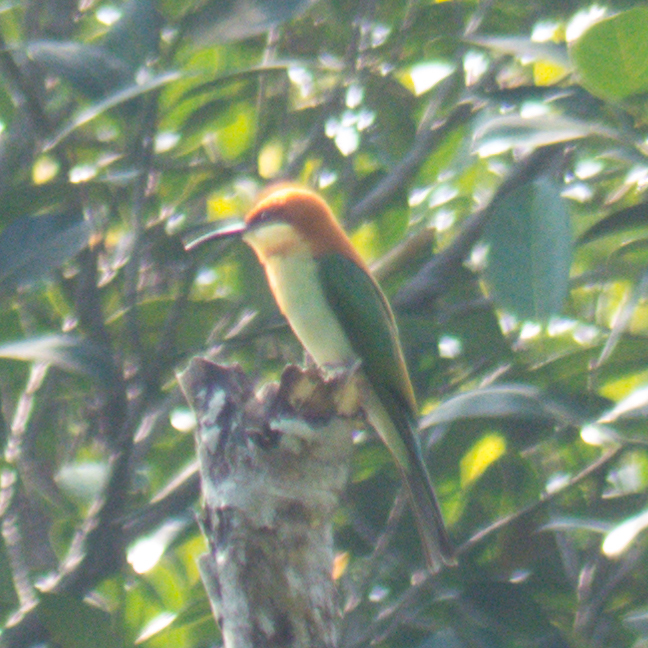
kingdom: Animalia
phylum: Chordata
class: Aves
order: Coraciiformes
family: Meropidae
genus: Merops
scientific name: Merops leschenaulti
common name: Chestnut-headed bee-eater
